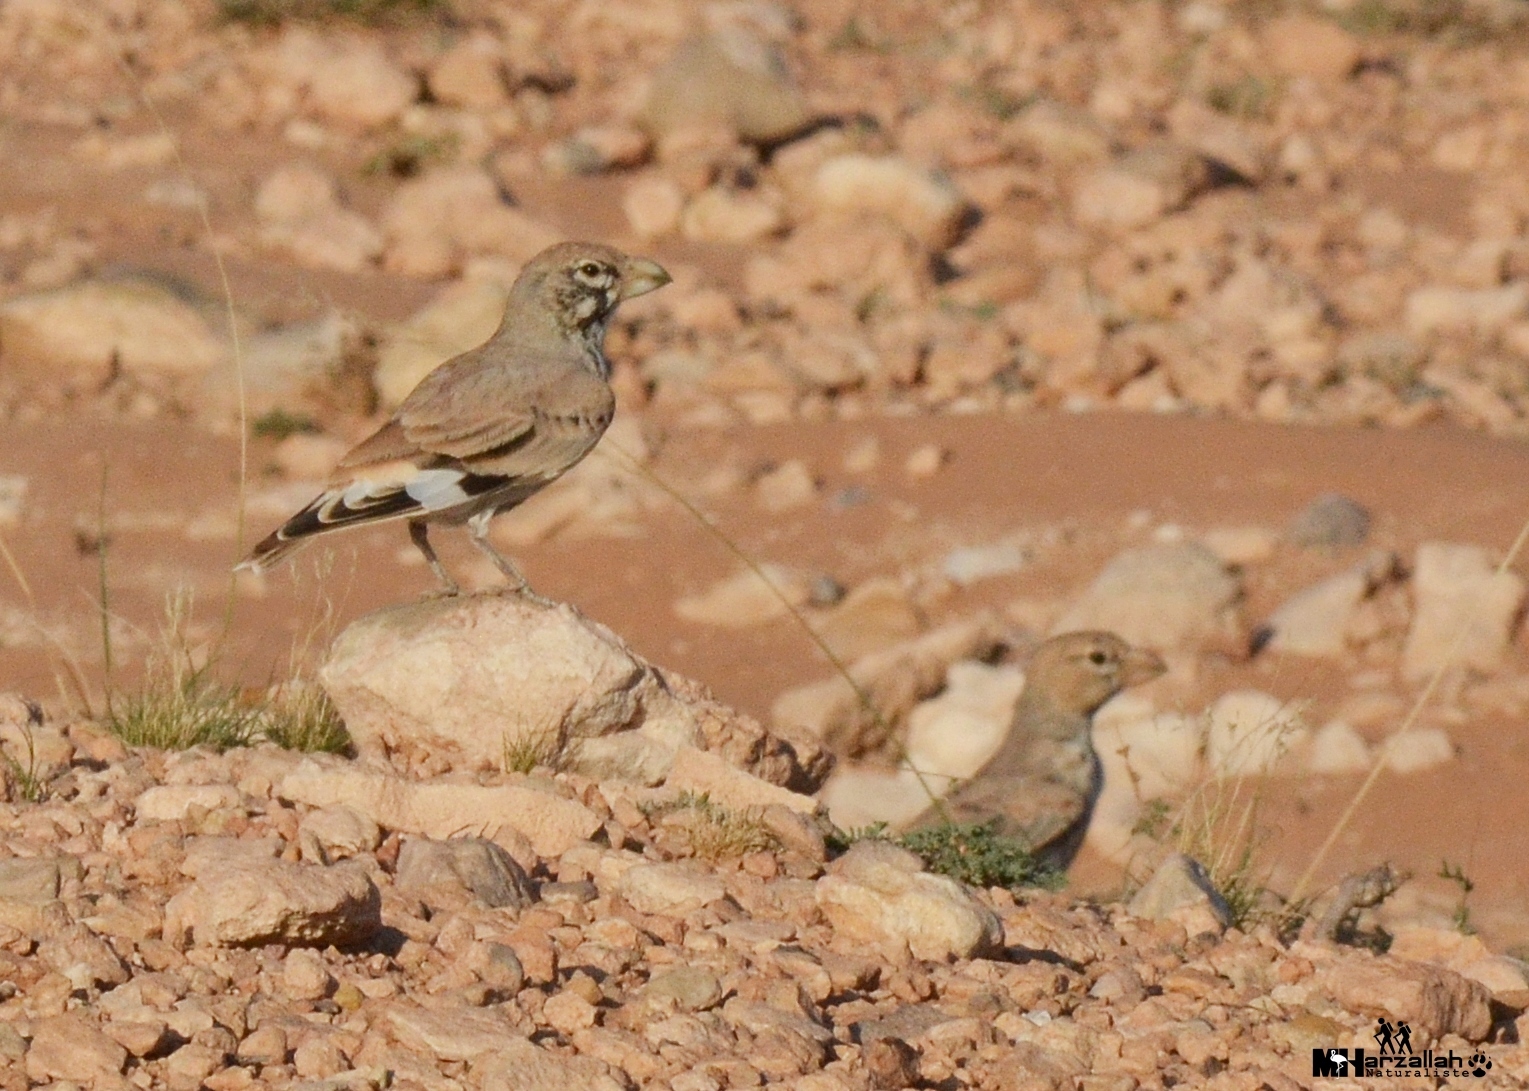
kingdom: Animalia
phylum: Chordata
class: Aves
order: Passeriformes
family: Alaudidae
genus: Ramphocoris
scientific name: Ramphocoris clotbey
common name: Thick-billed lark
